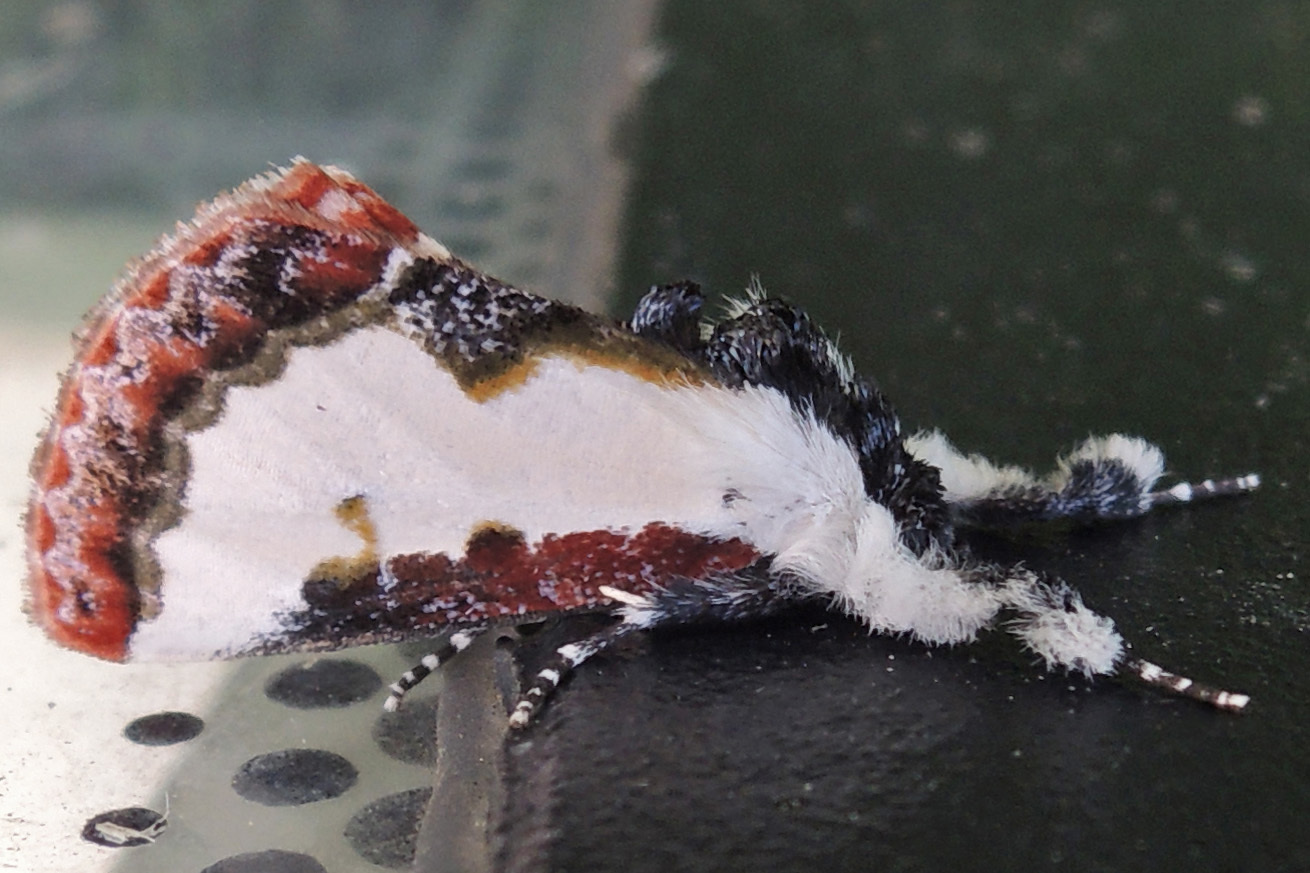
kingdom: Animalia
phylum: Arthropoda
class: Insecta
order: Lepidoptera
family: Noctuidae
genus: Eudryas
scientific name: Eudryas unio
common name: Pearly wood-nymph
